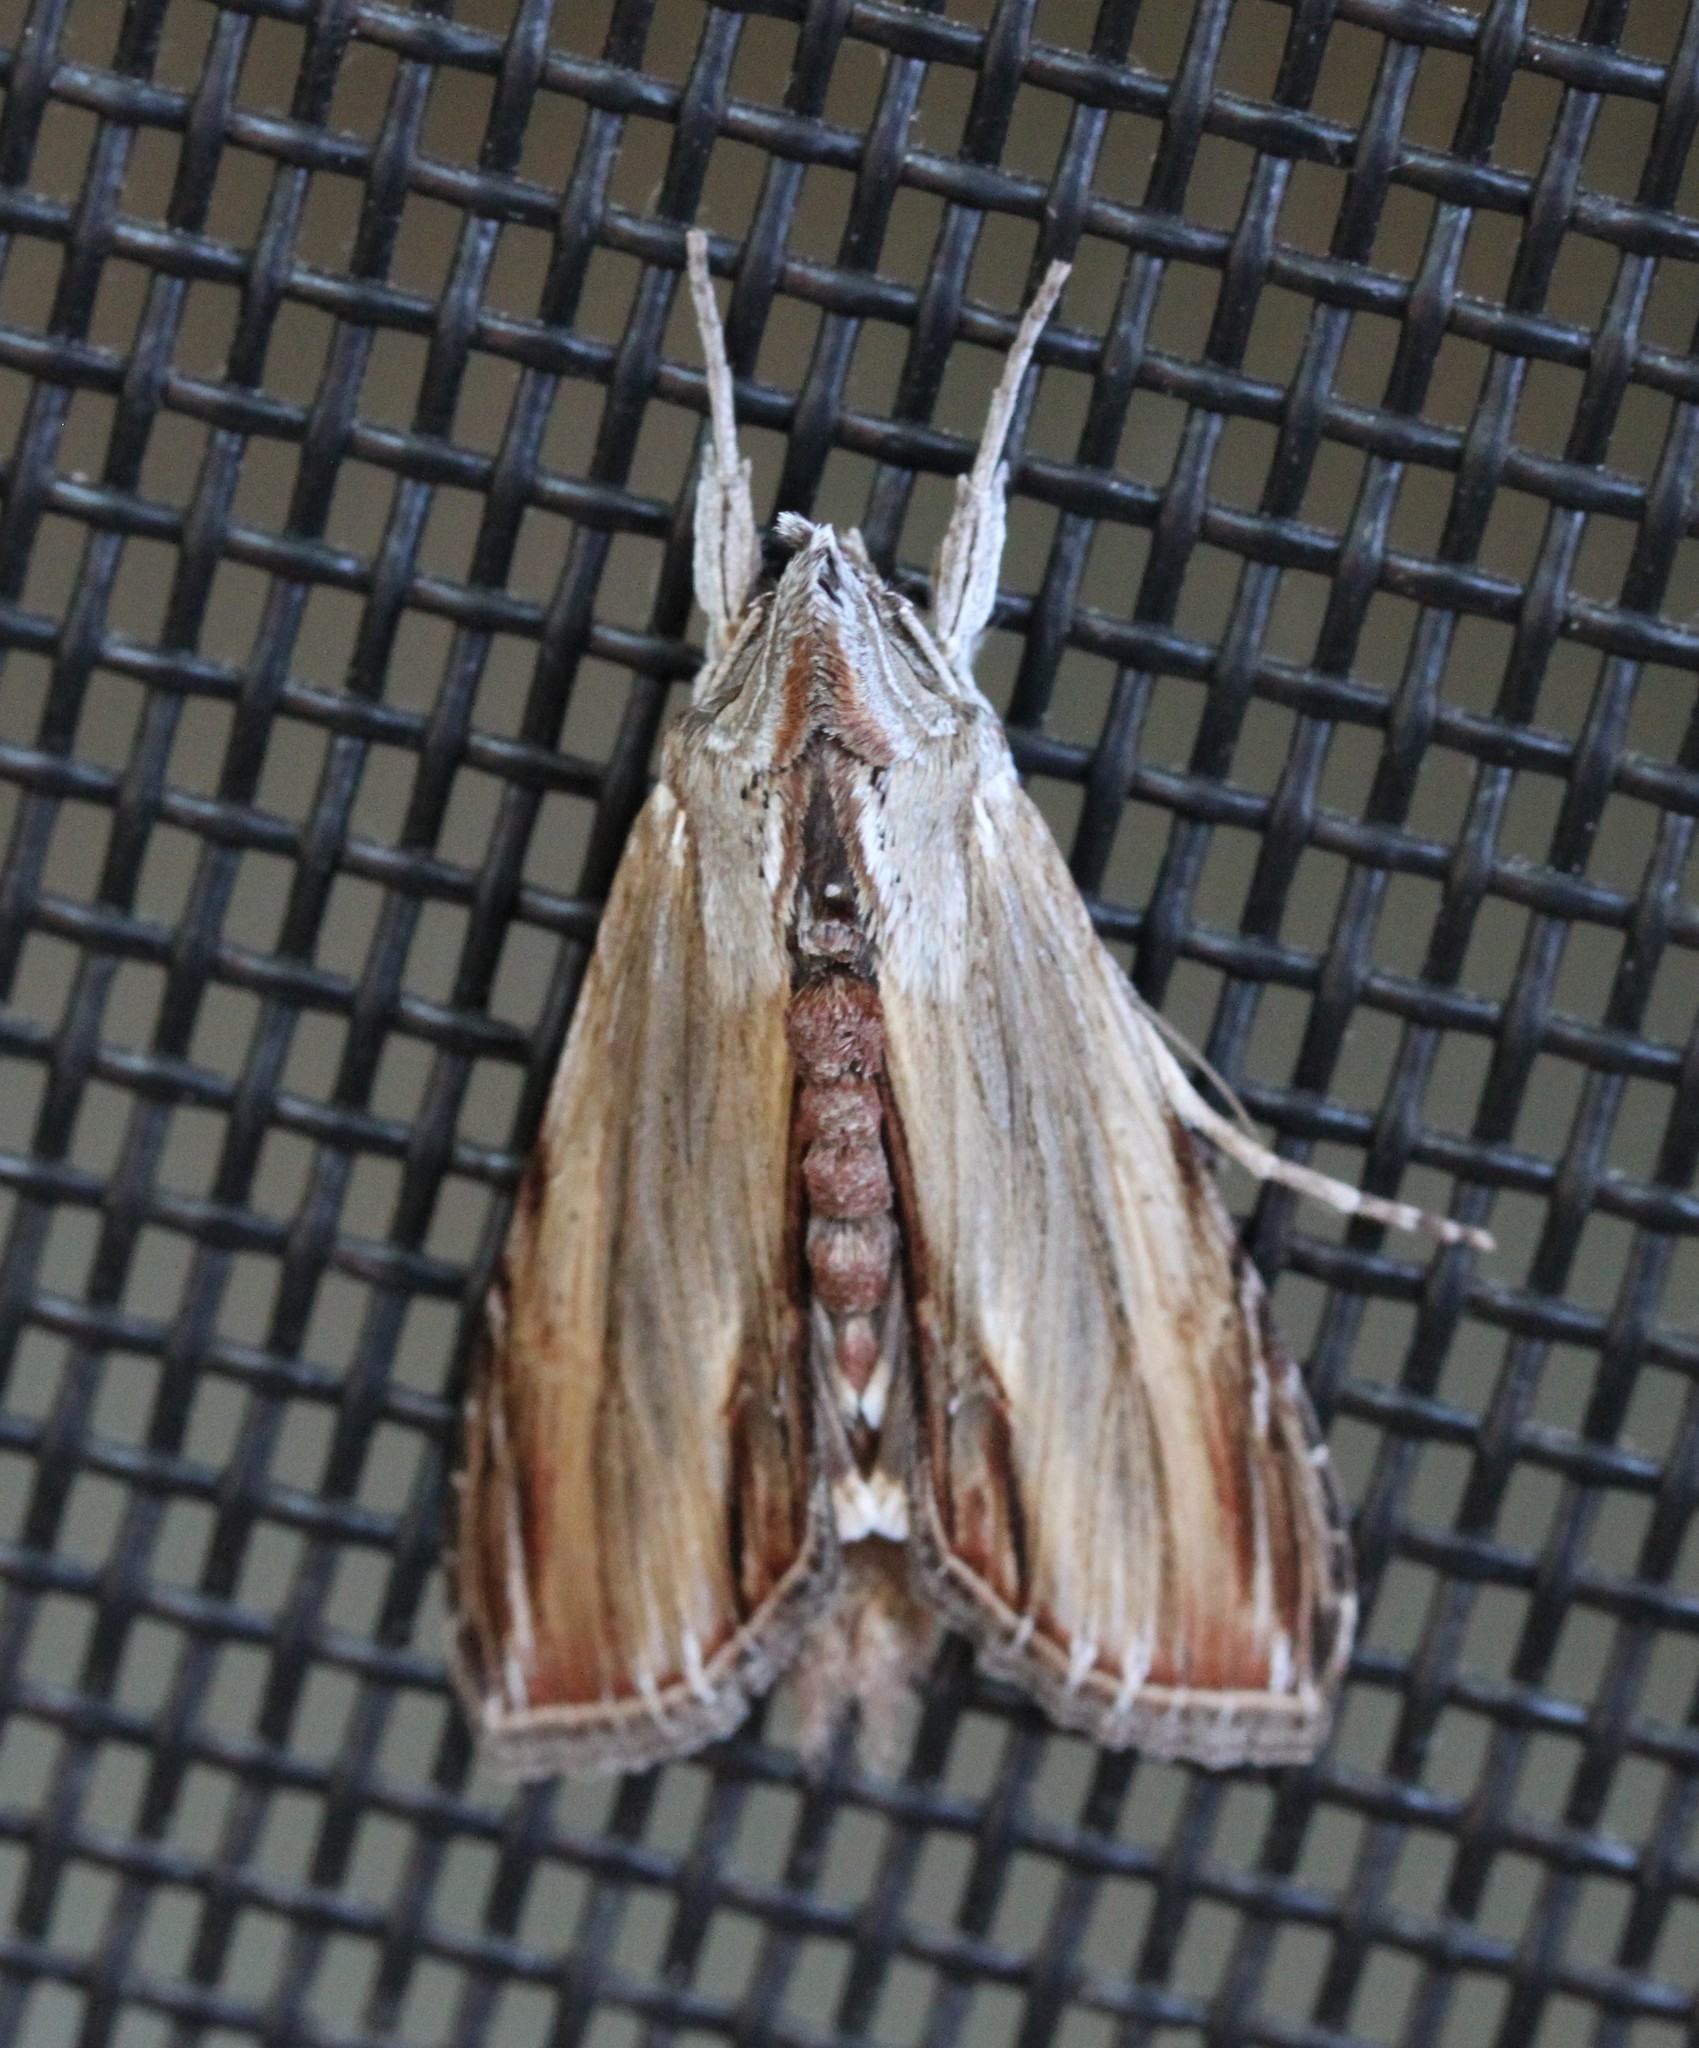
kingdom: Animalia
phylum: Arthropoda
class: Insecta
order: Lepidoptera
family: Noctuidae
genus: Cucullia
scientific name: Cucullia convexipennis
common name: Brown-hooded owlet
